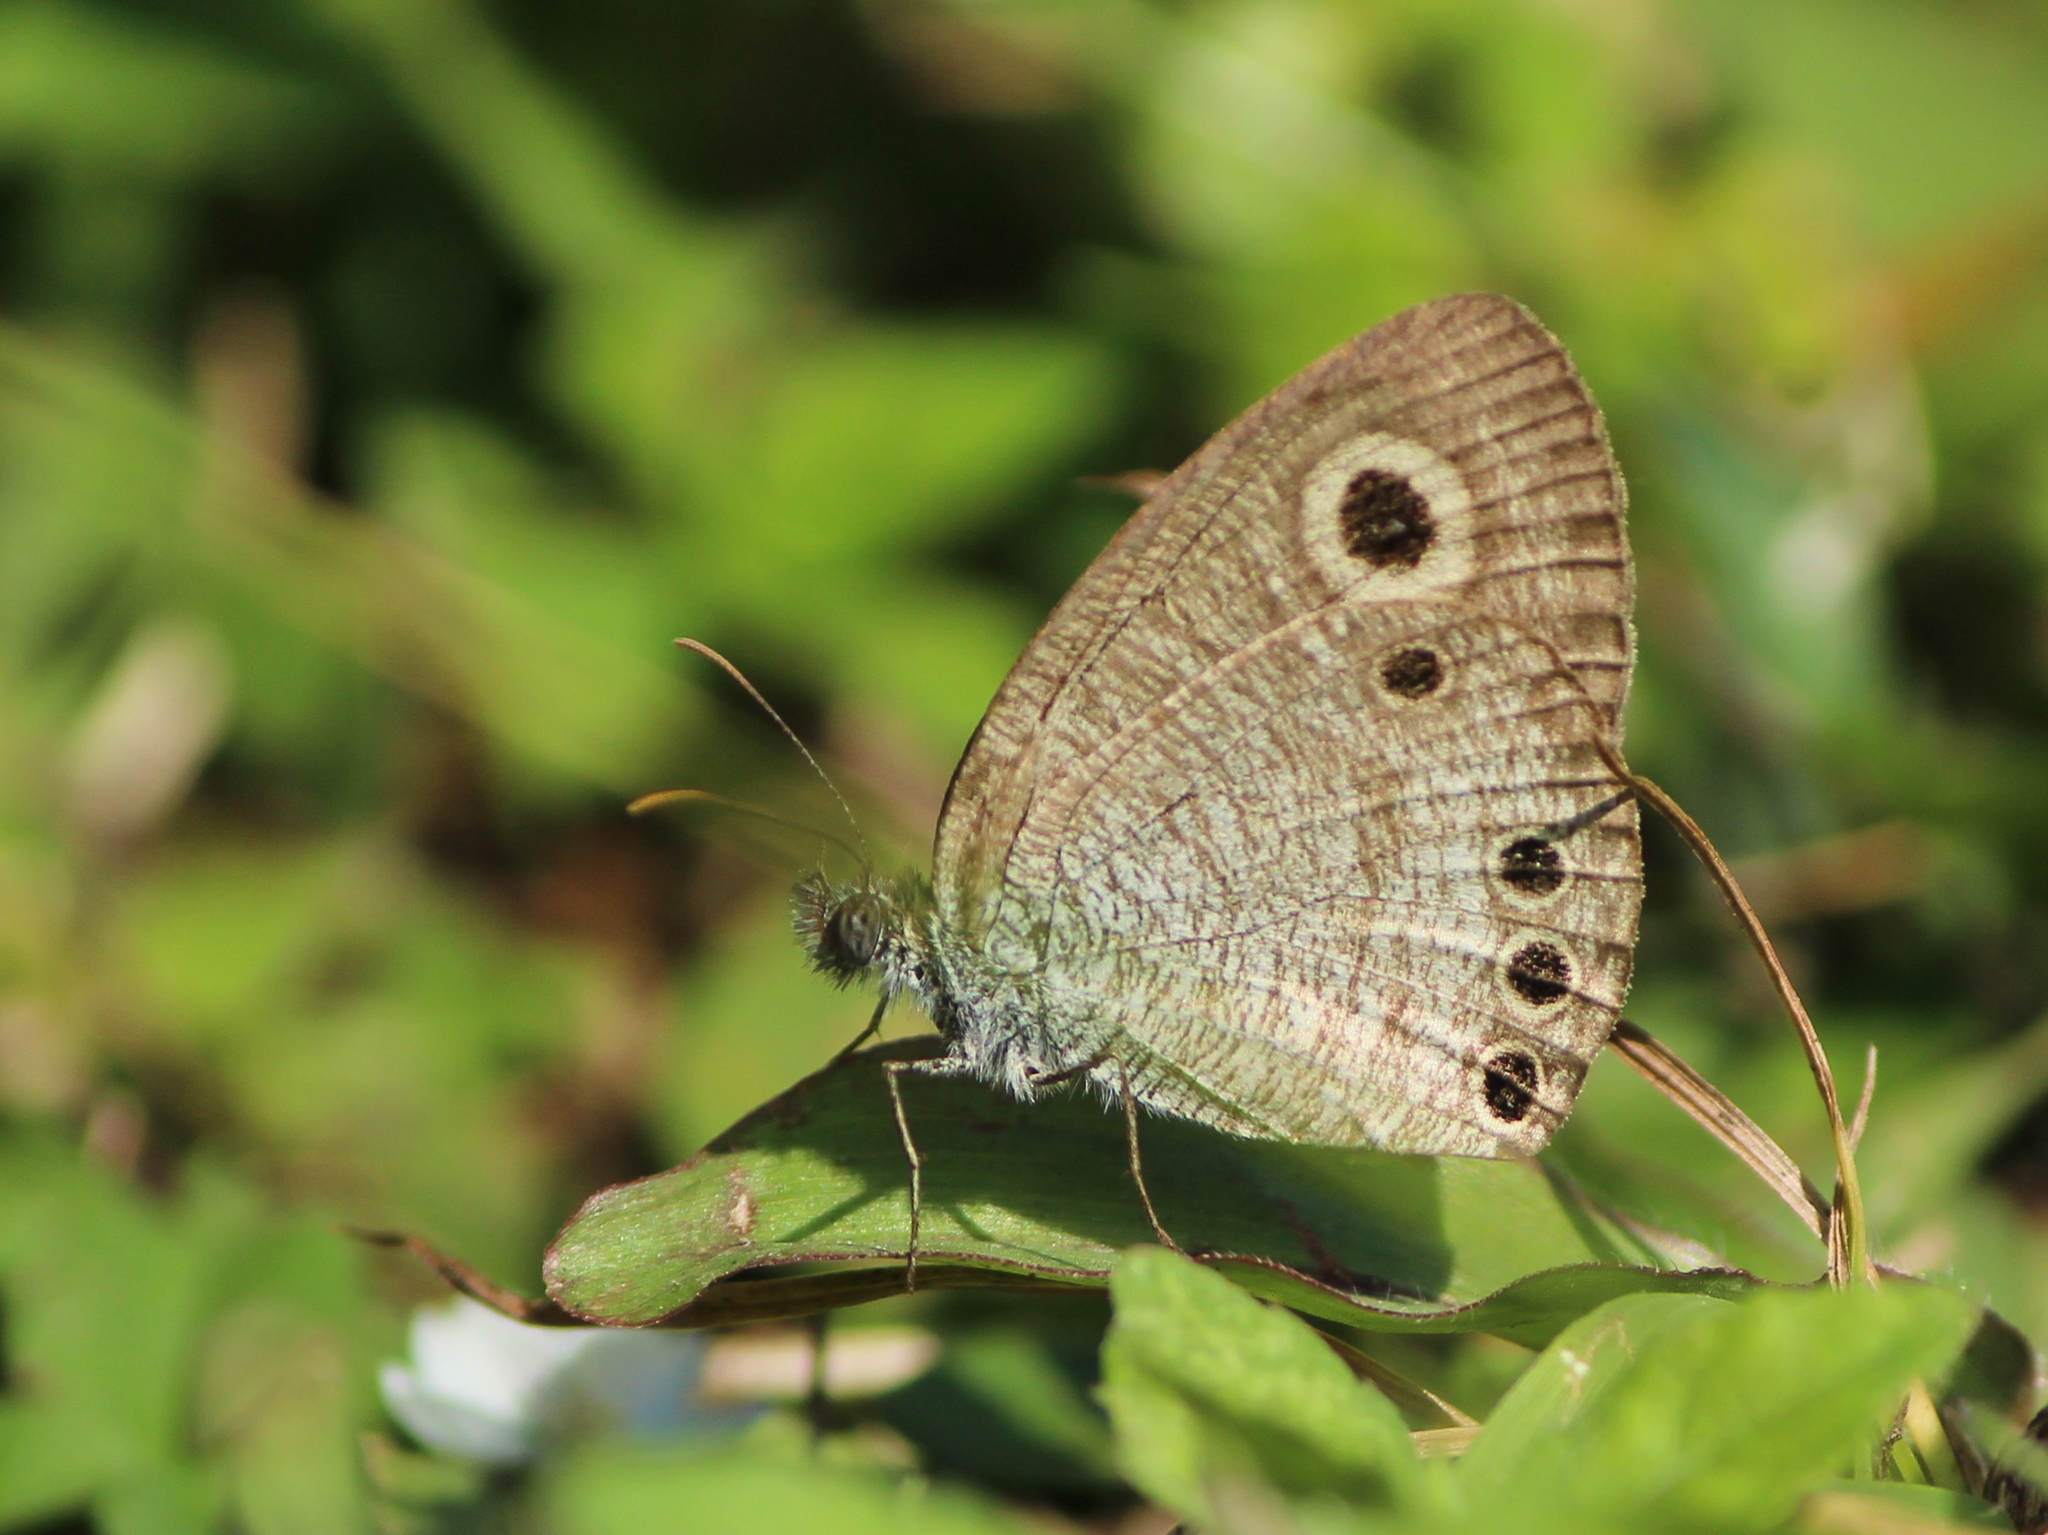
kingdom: Animalia
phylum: Arthropoda
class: Insecta
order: Lepidoptera
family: Nymphalidae
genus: Ypthima
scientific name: Ypthima huebneri
